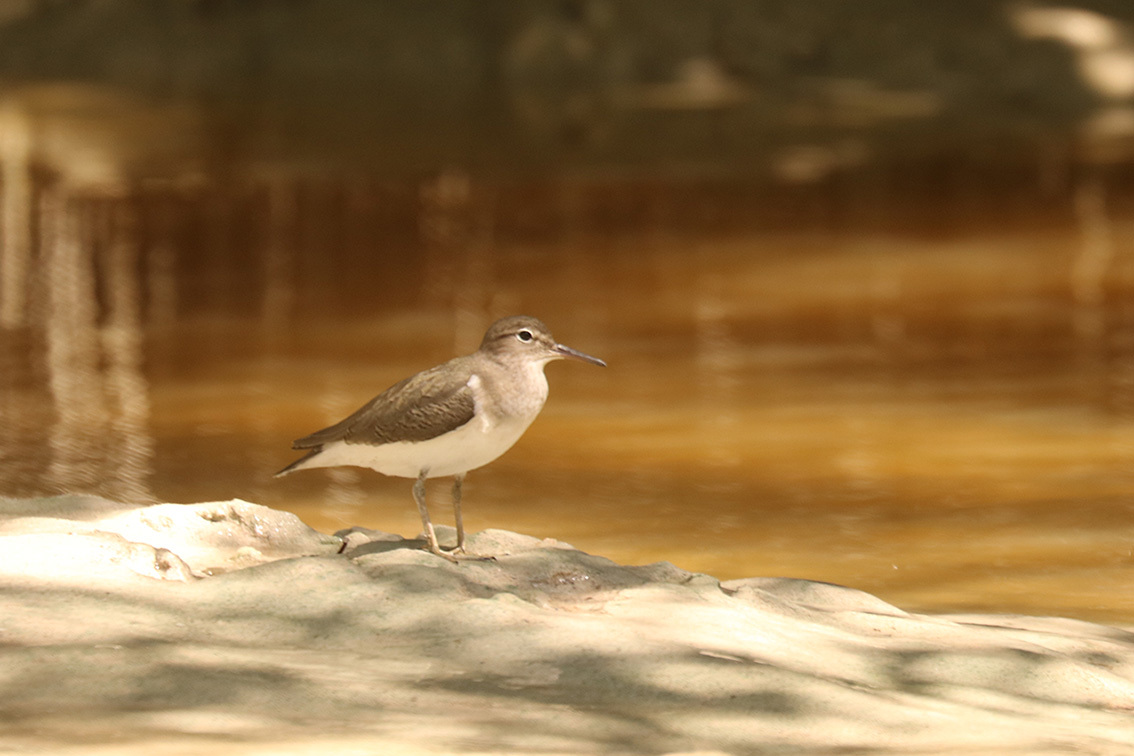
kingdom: Animalia
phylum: Chordata
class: Aves
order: Charadriiformes
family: Scolopacidae
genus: Actitis
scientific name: Actitis macularius
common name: Spotted sandpiper
